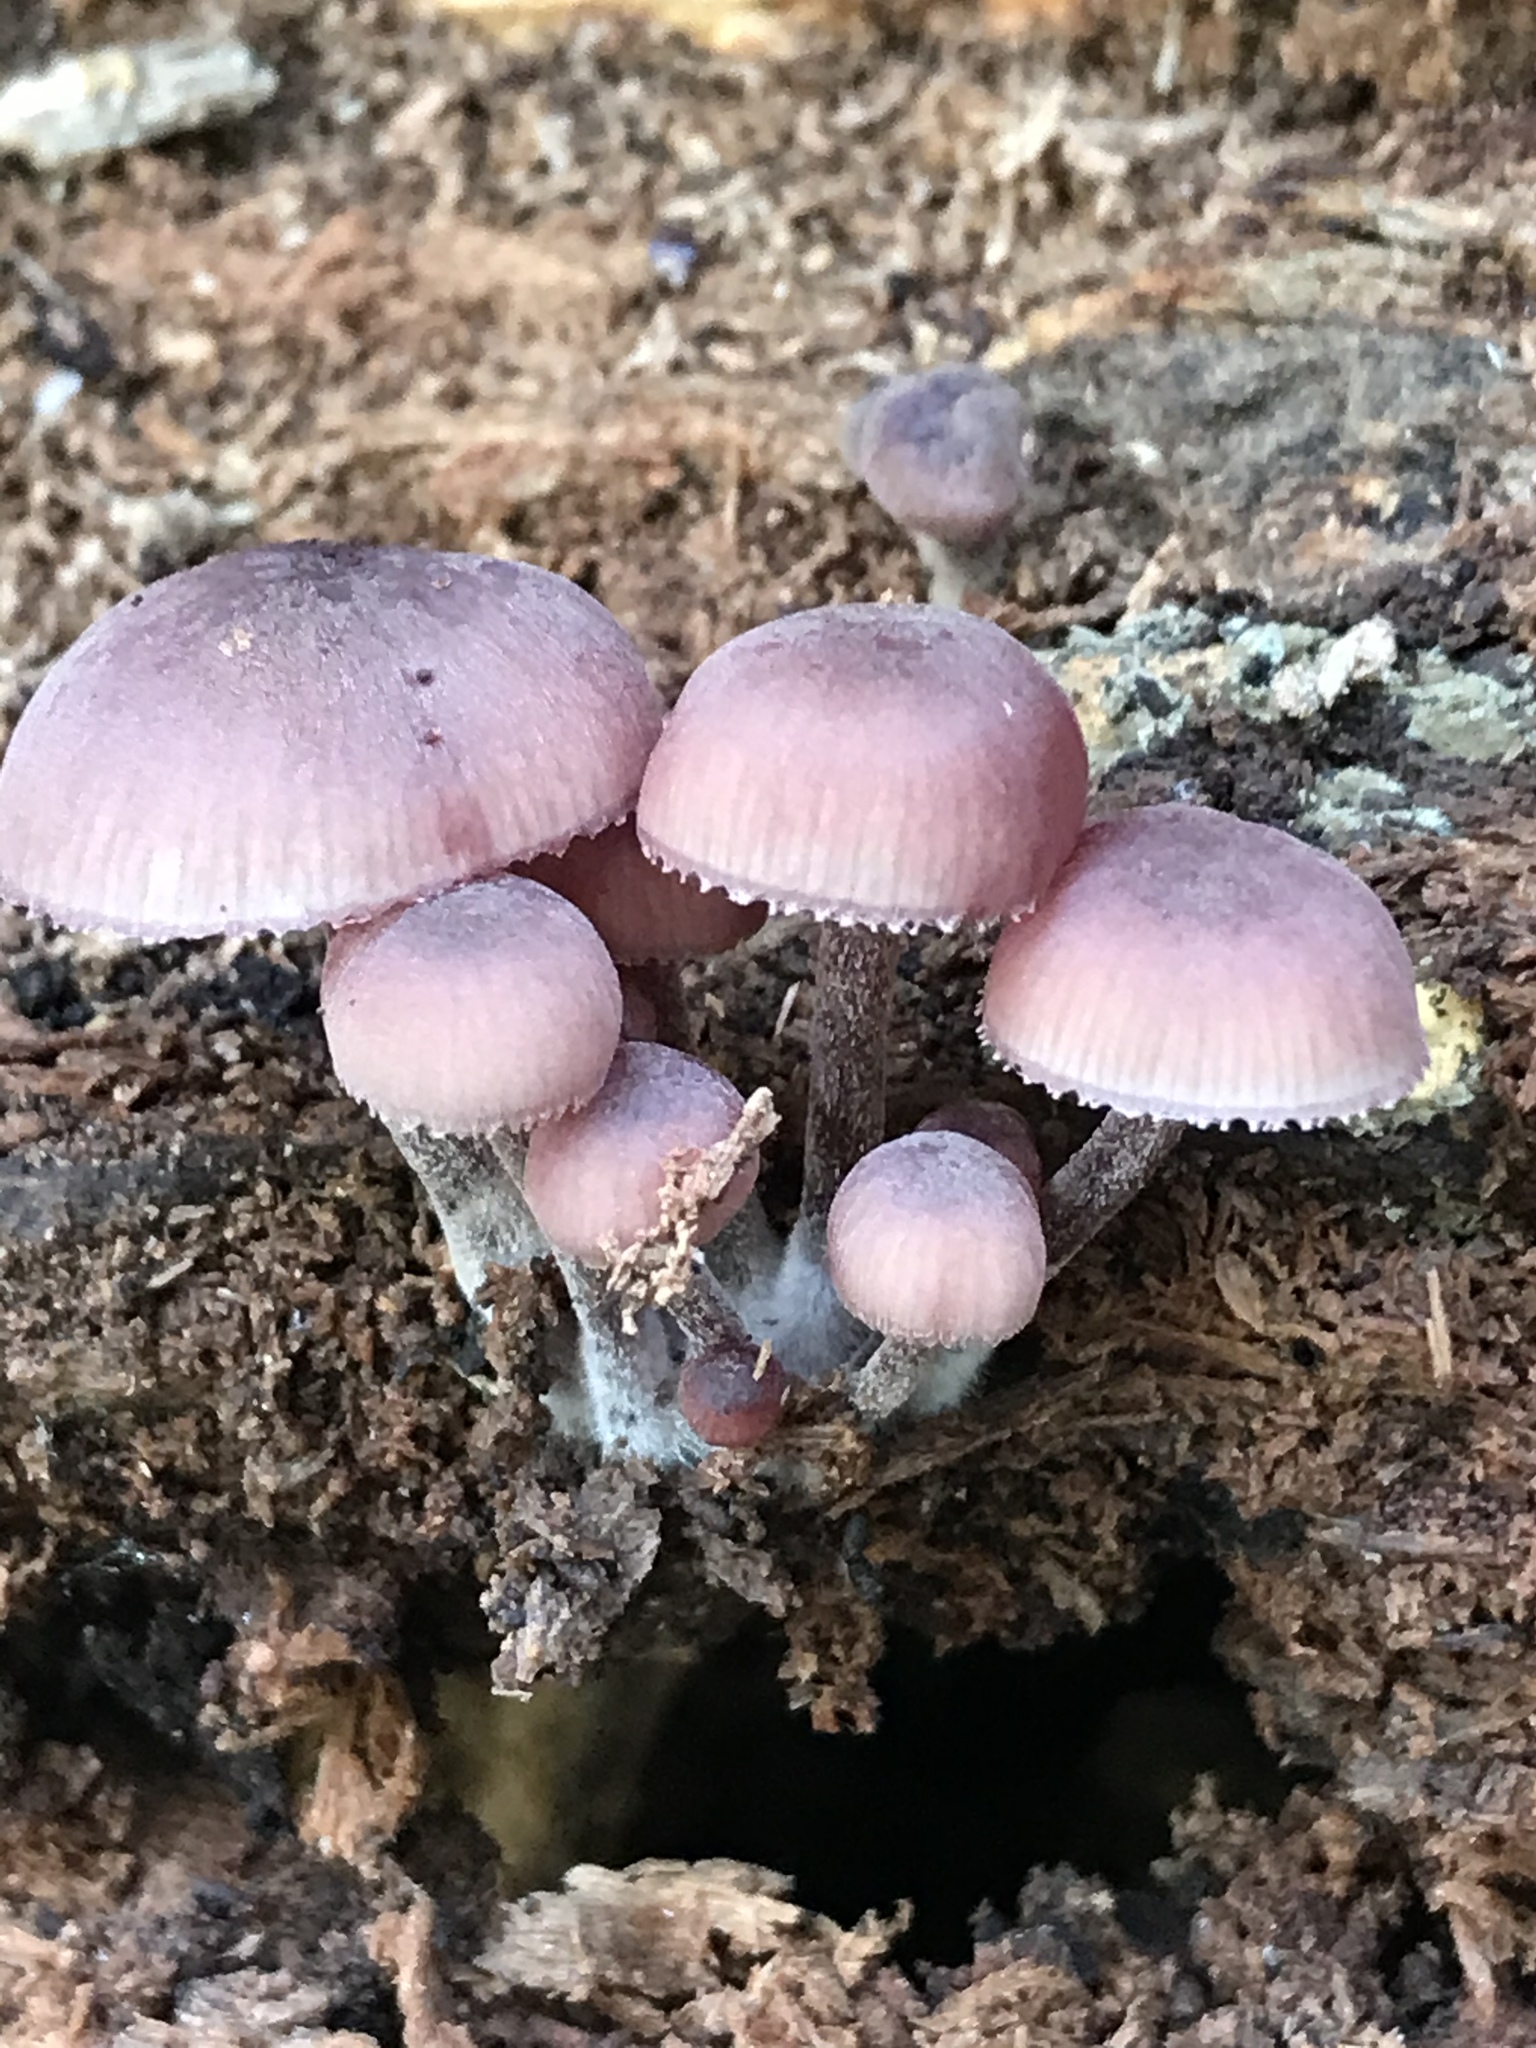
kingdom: Fungi
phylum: Basidiomycota
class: Agaricomycetes
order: Agaricales
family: Mycenaceae
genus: Mycena
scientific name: Mycena haematopus
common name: Burgundydrop bonnet
